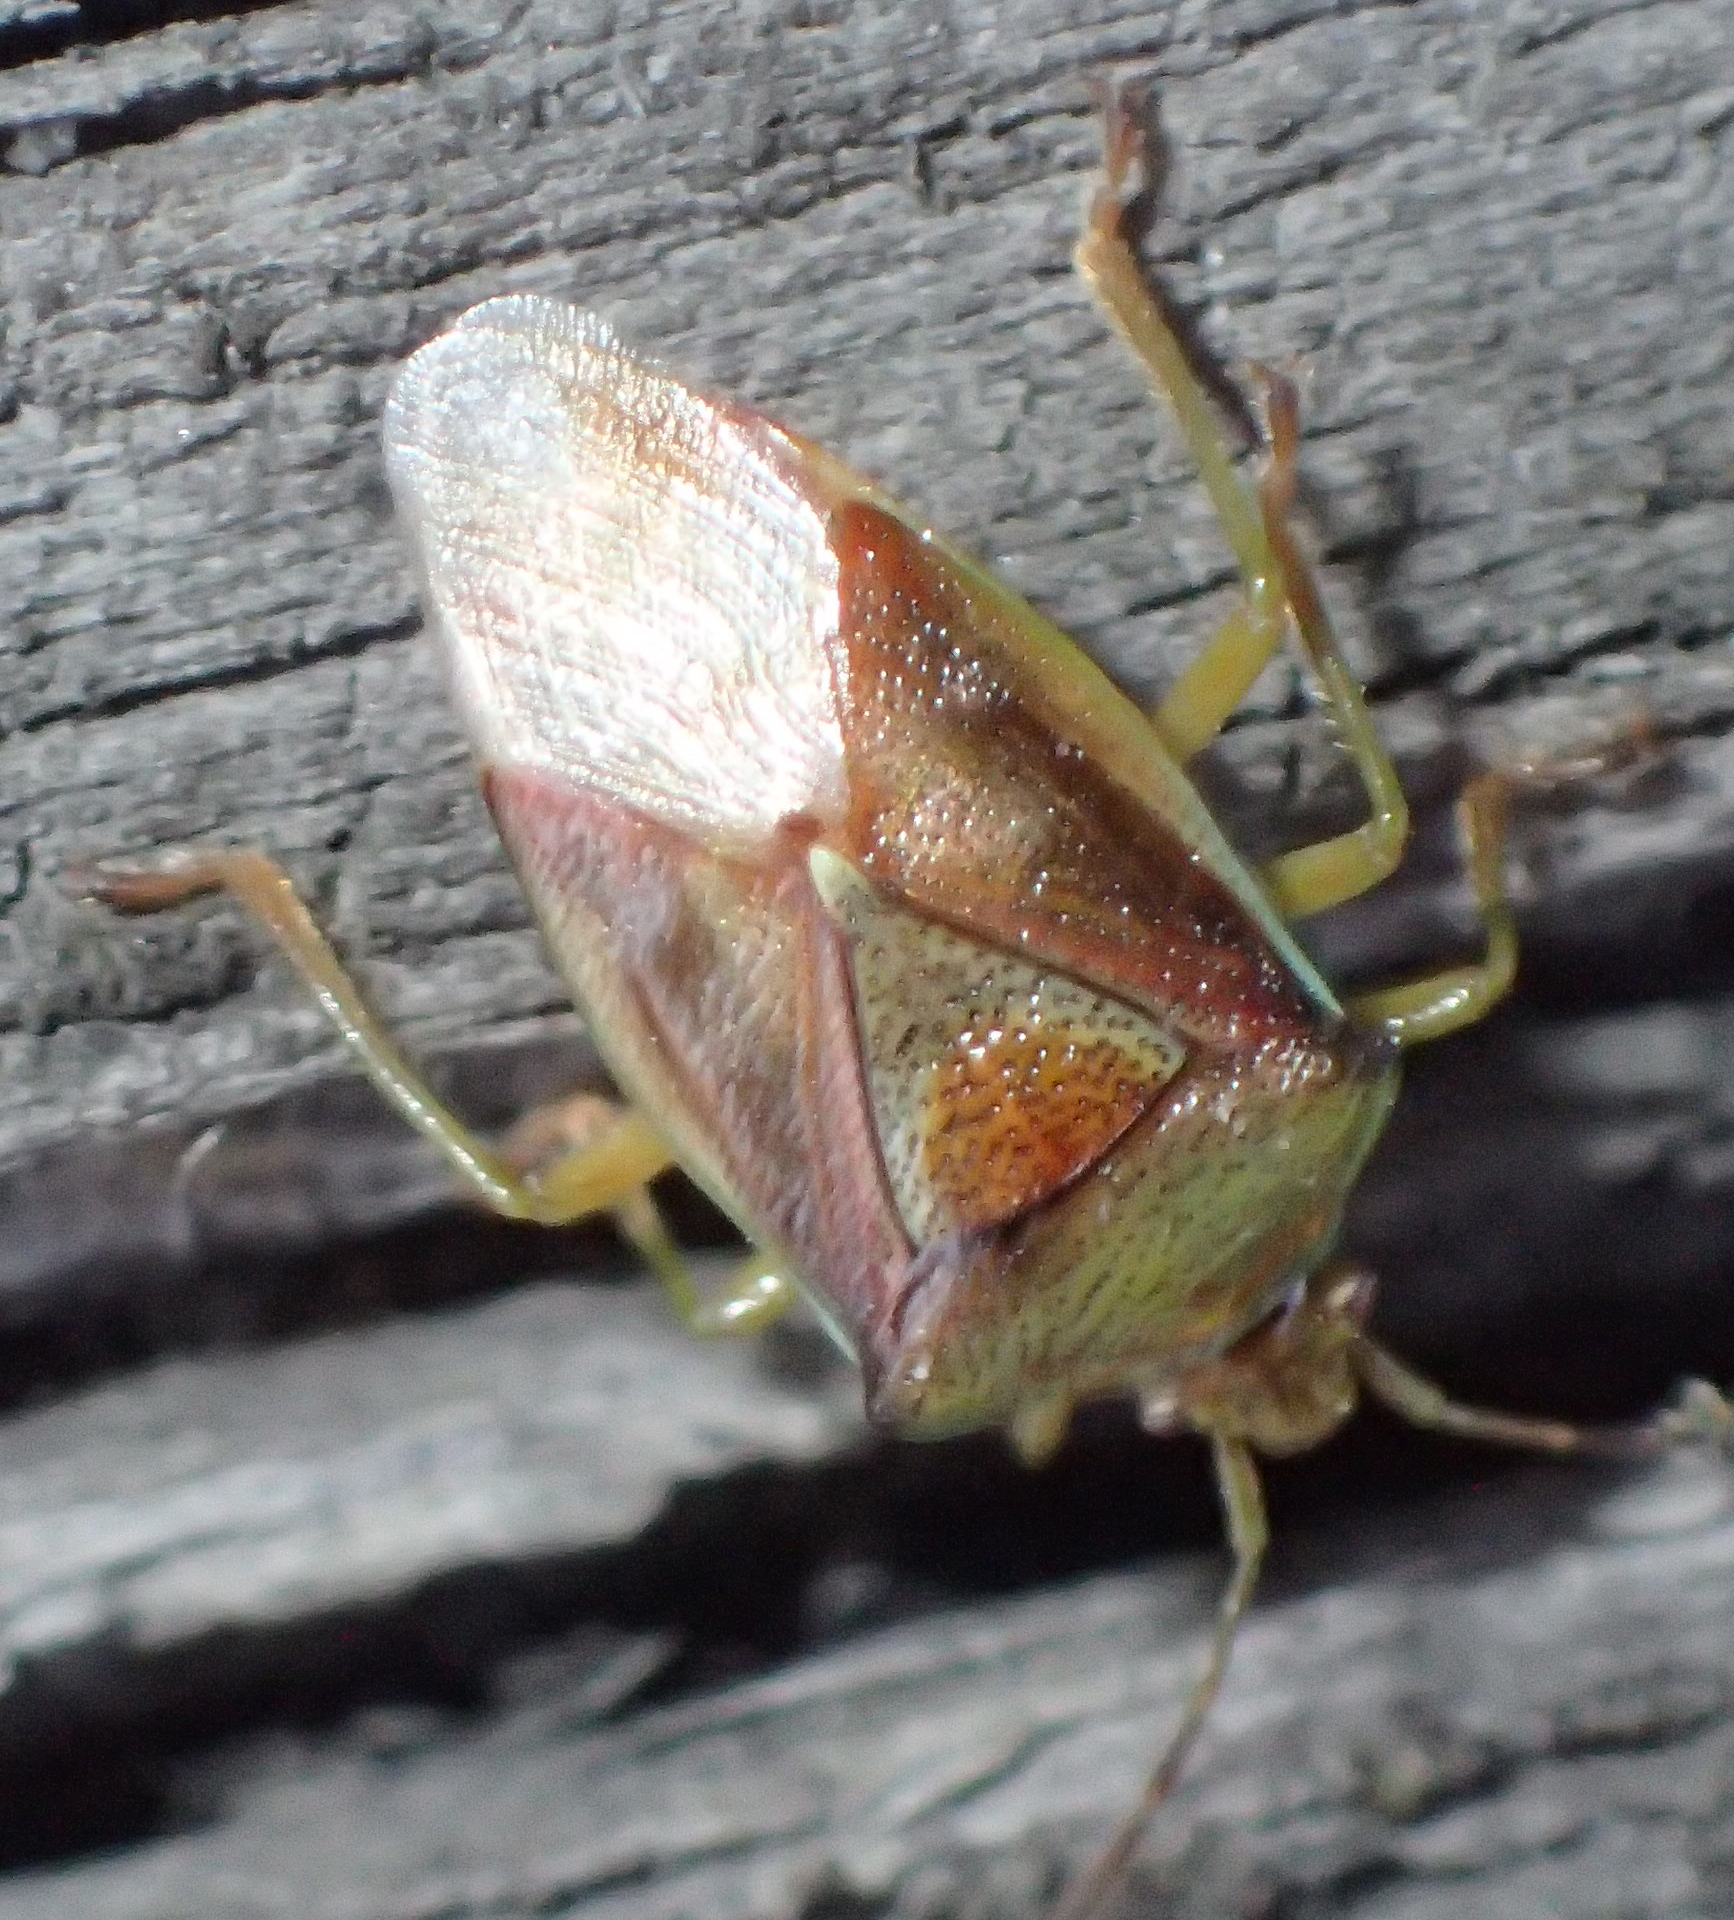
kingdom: Animalia
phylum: Arthropoda
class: Insecta
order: Hemiptera
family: Acanthosomatidae
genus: Elasmostethus
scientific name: Elasmostethus interstinctus
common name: Birch shieldbug
